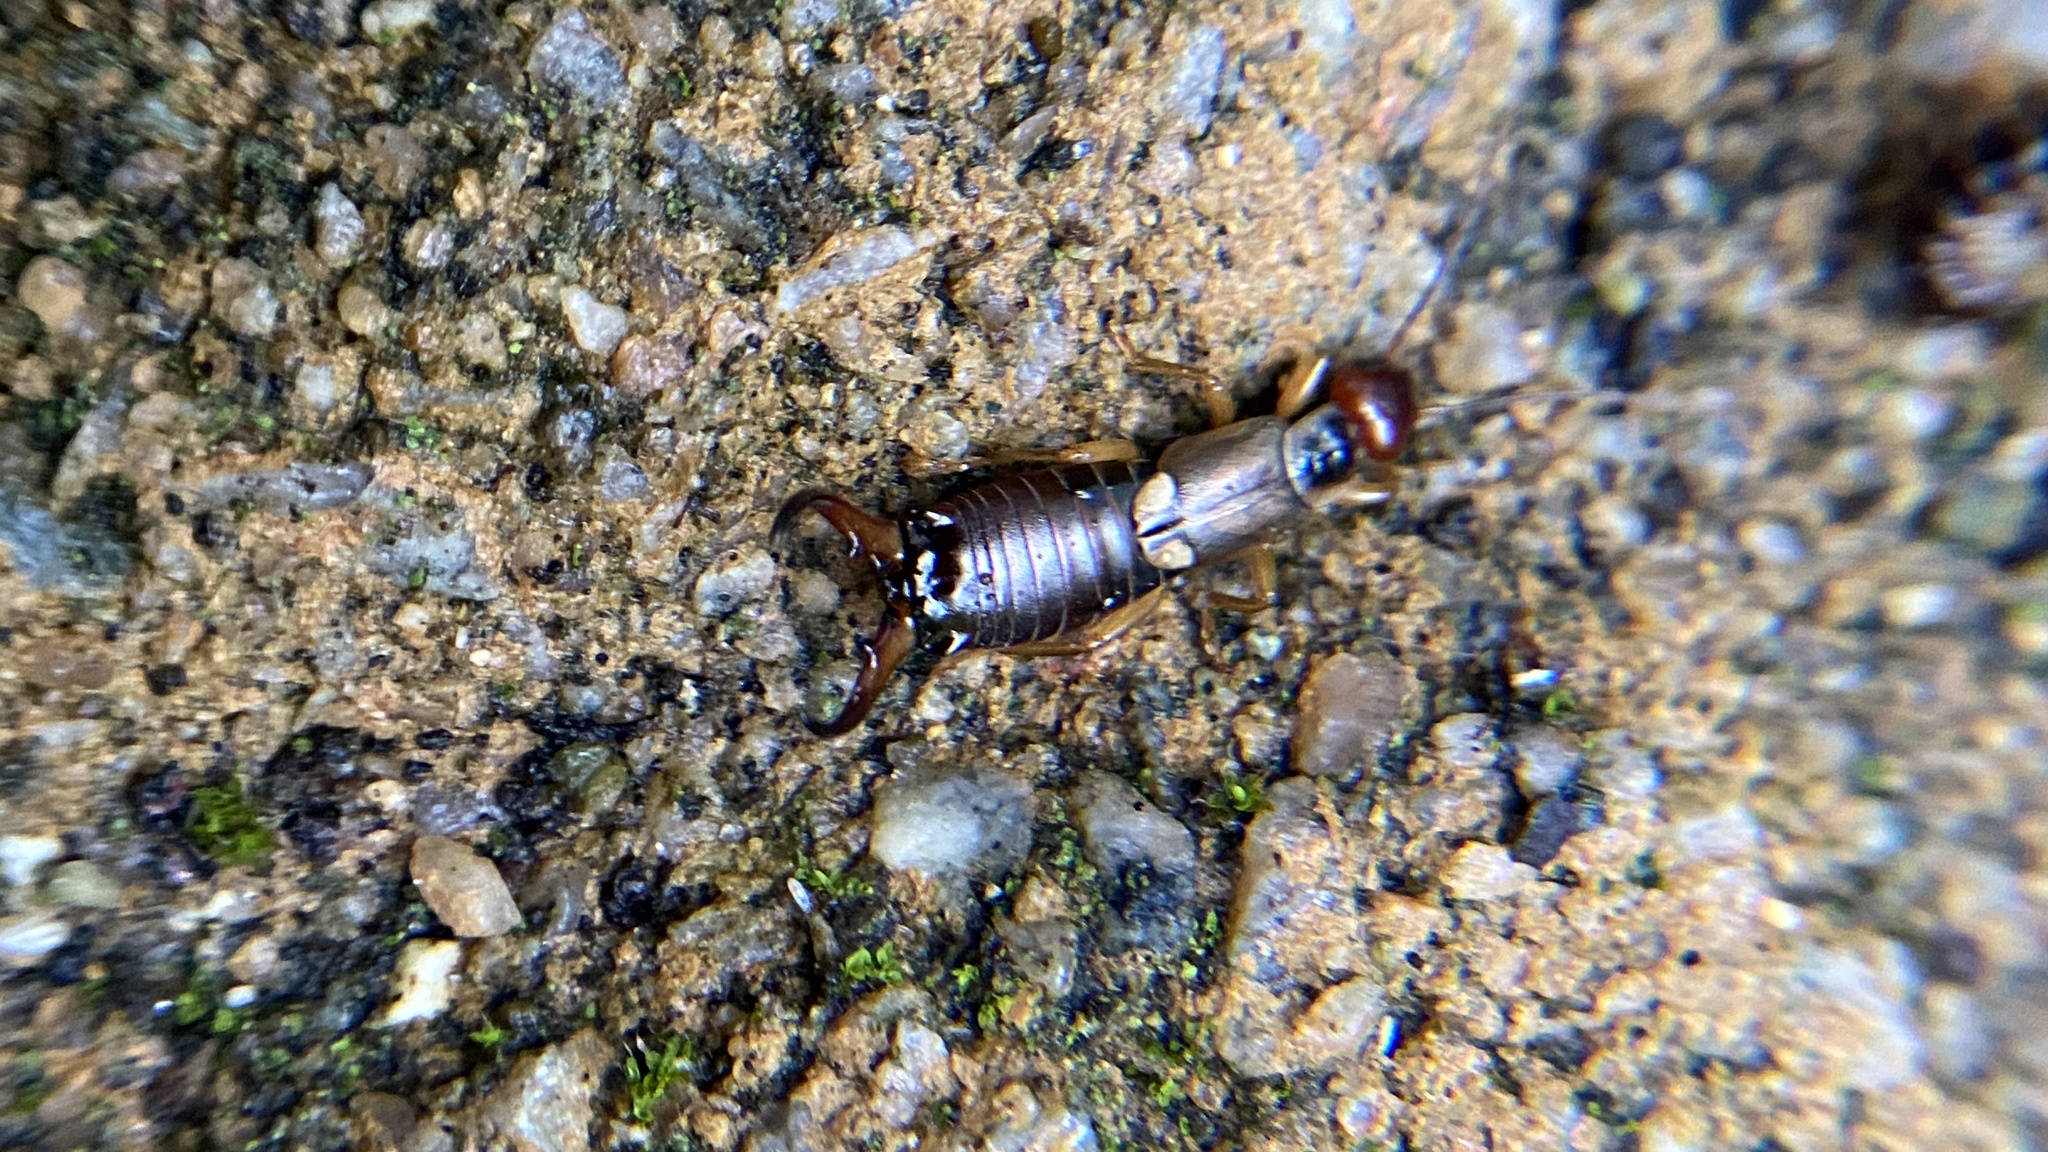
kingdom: Animalia
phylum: Arthropoda
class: Insecta
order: Dermaptera
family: Forficulidae
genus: Forficula
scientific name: Forficula
